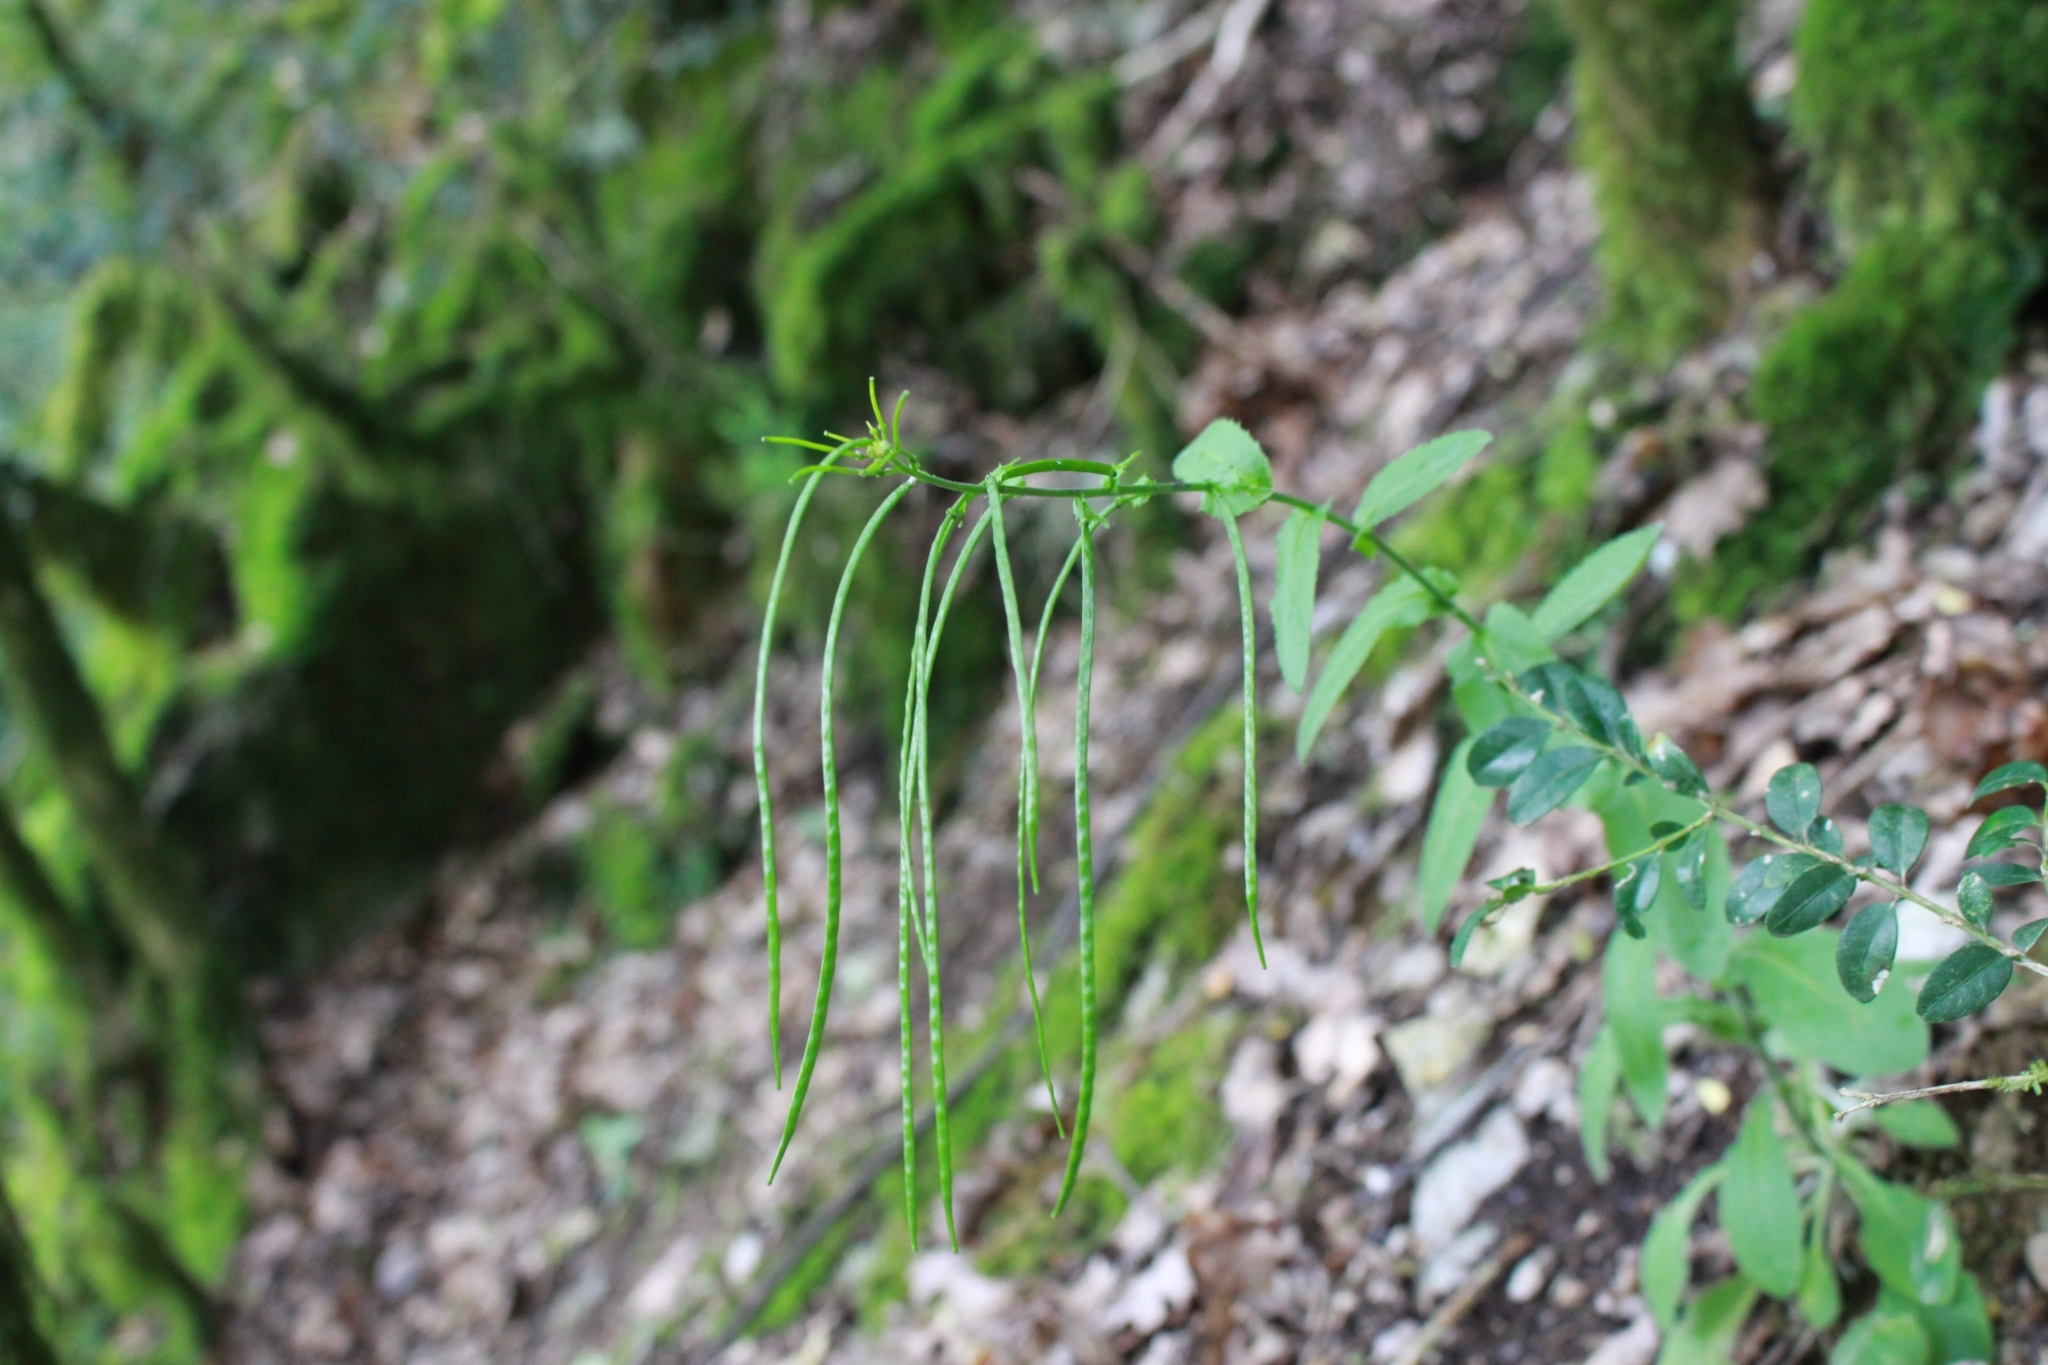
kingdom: Plantae
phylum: Tracheophyta
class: Magnoliopsida
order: Brassicales
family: Brassicaceae
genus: Pseudoturritis
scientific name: Pseudoturritis turrita
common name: Tower cress
